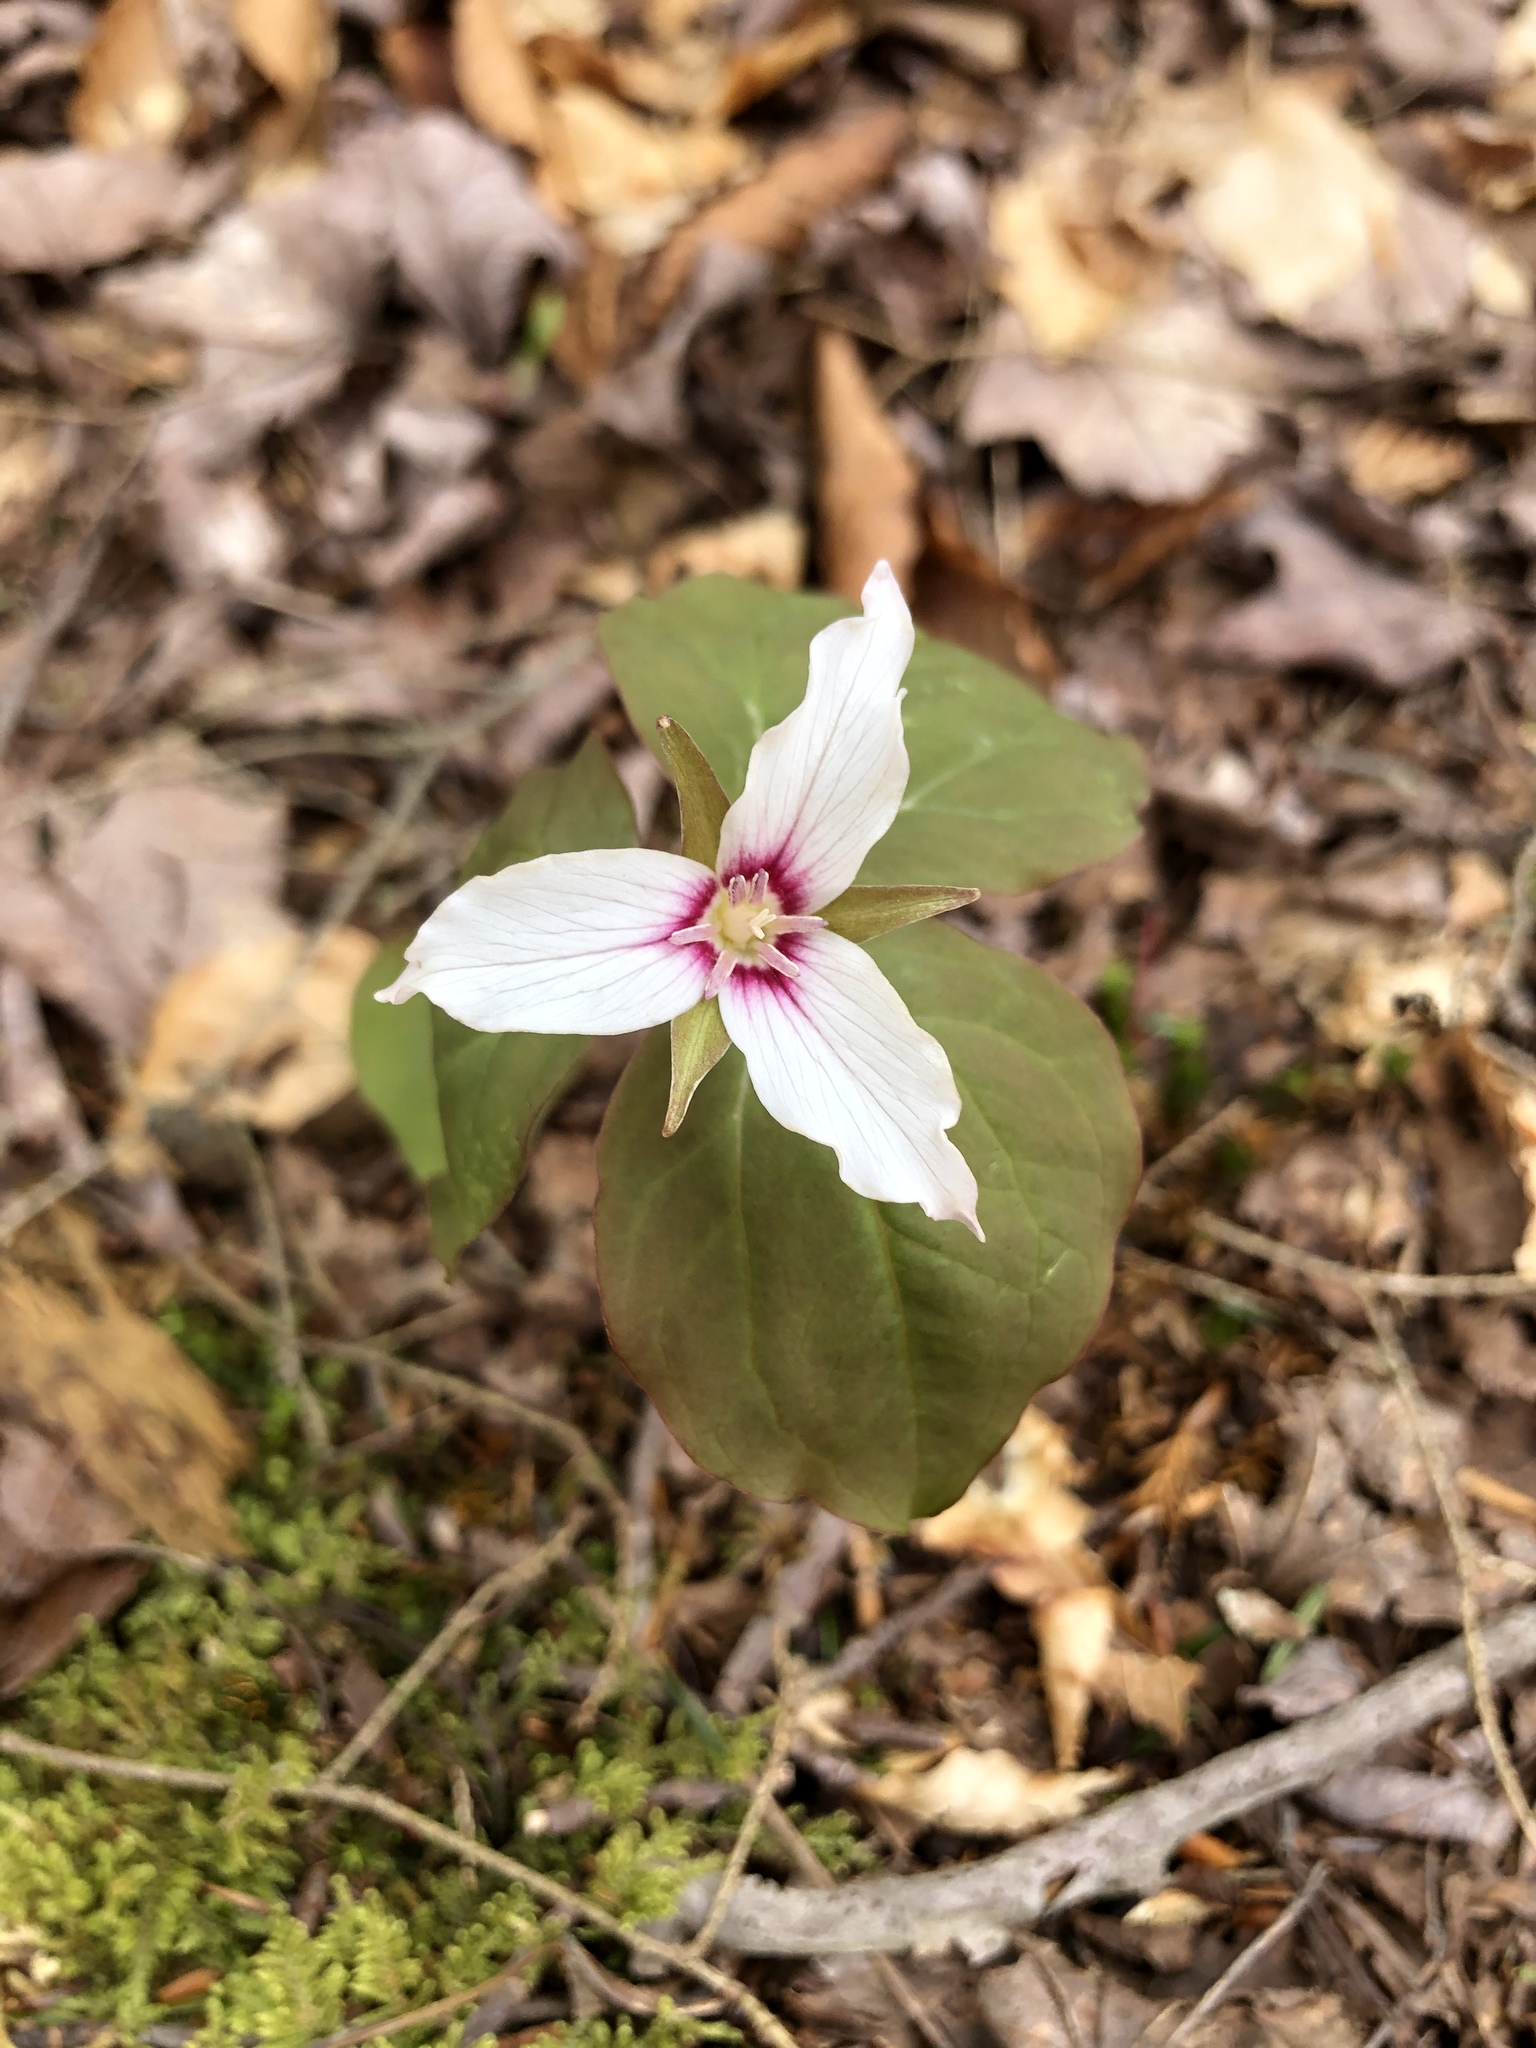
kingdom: Plantae
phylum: Tracheophyta
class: Liliopsida
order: Liliales
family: Melanthiaceae
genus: Trillium
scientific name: Trillium undulatum
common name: Paint trillium
